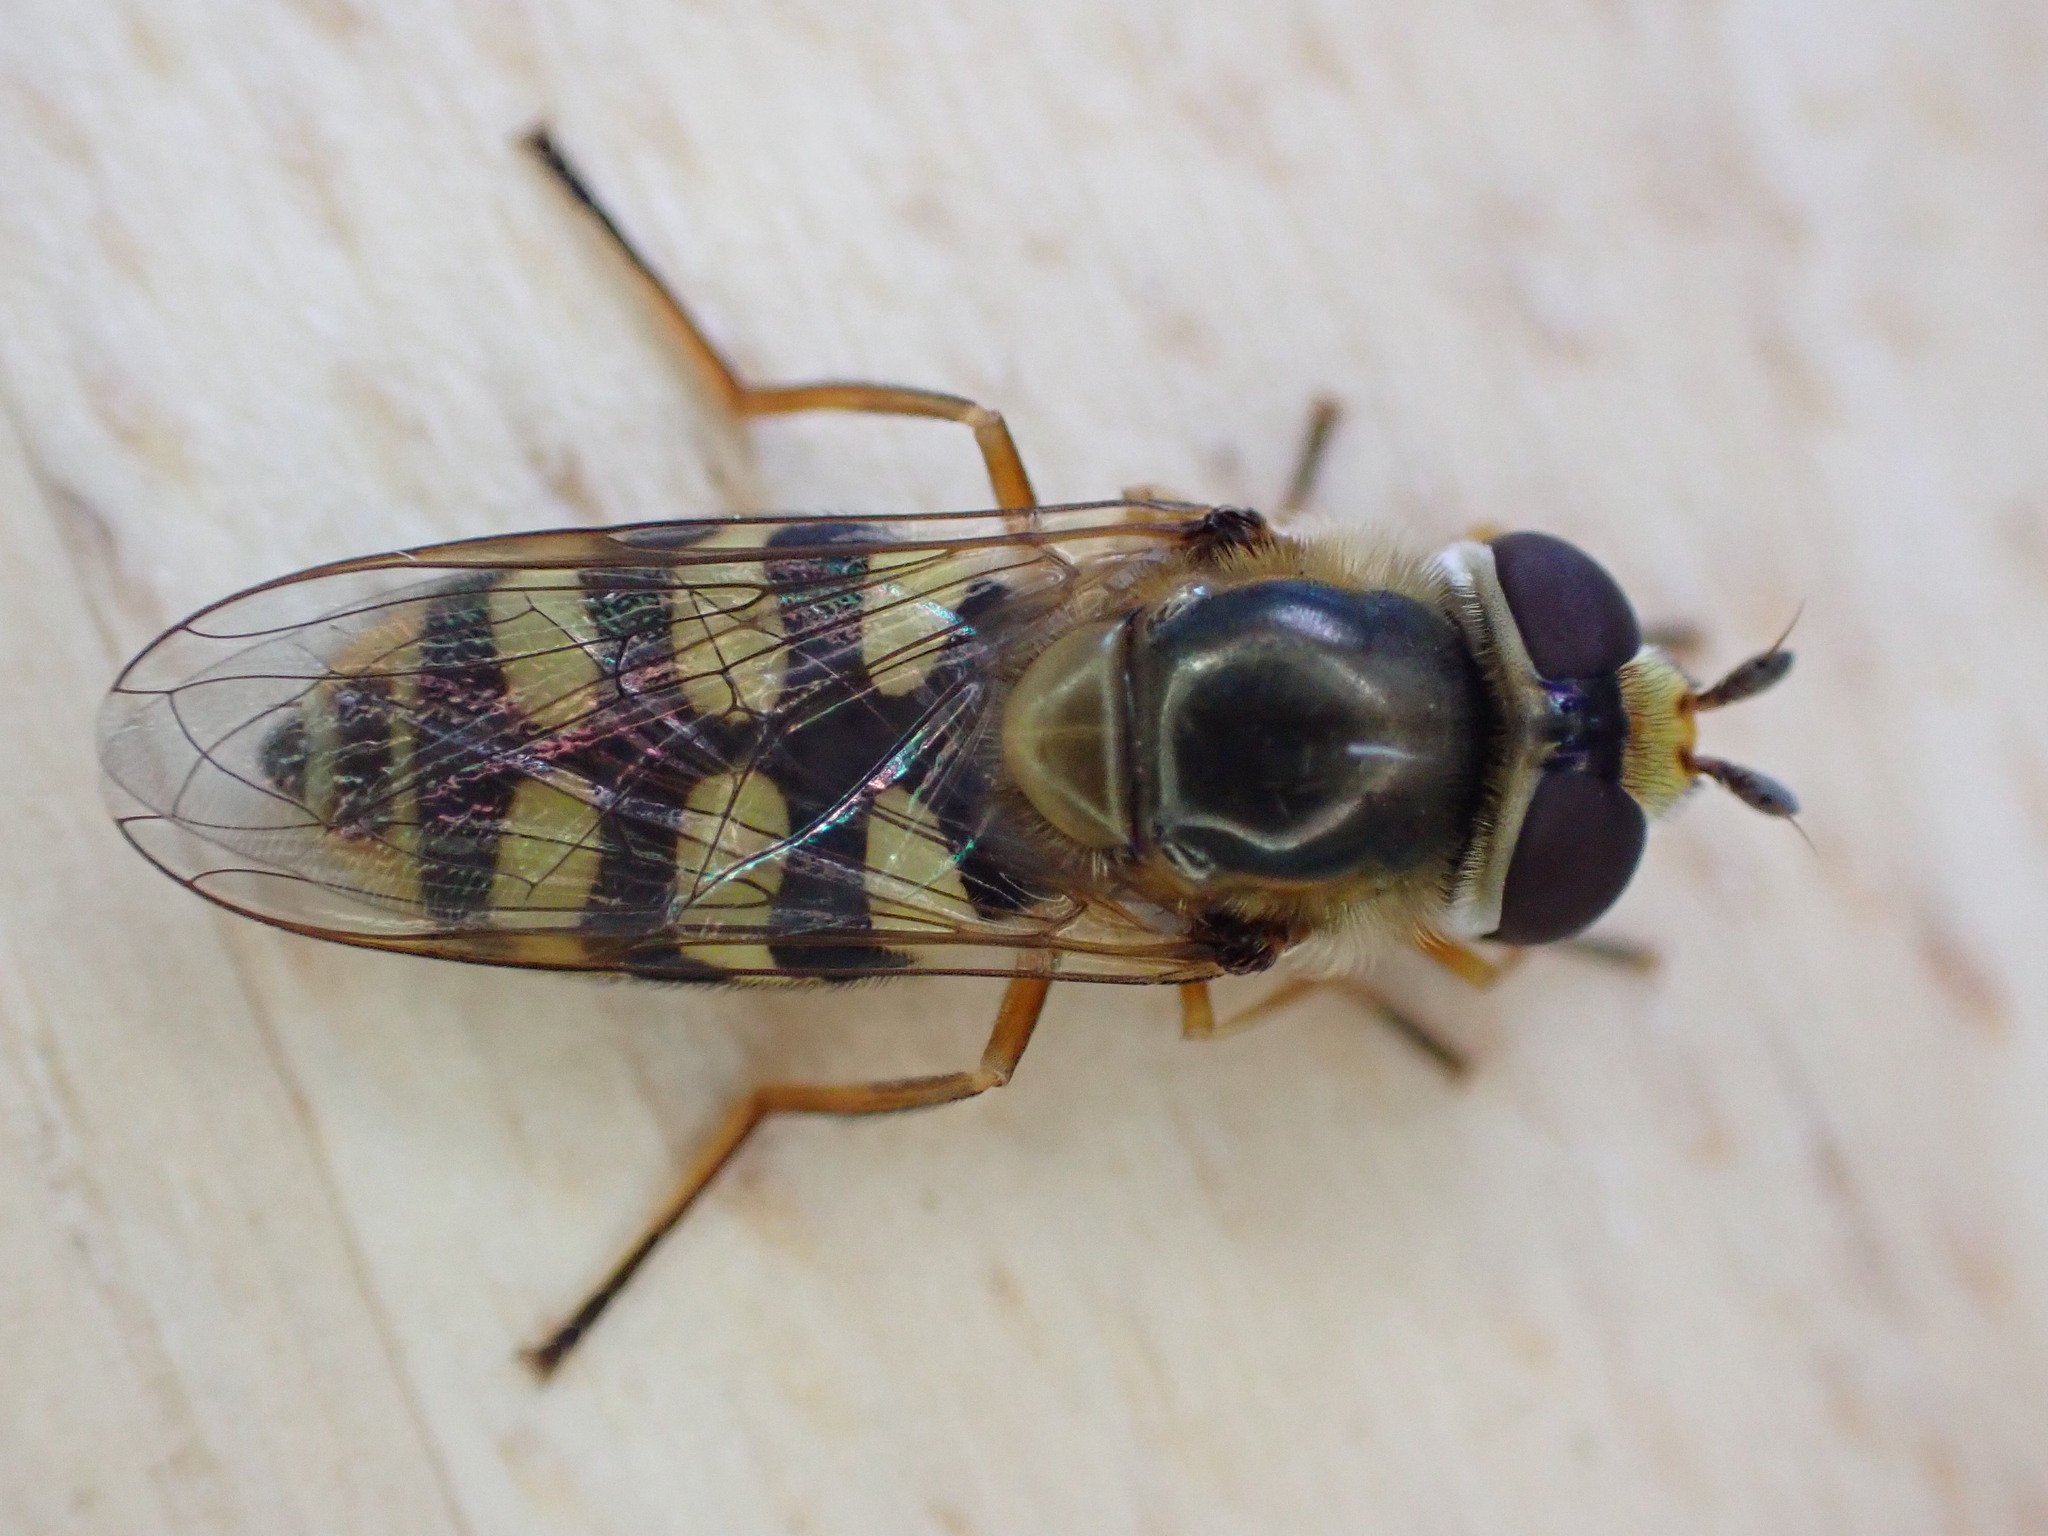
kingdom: Animalia
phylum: Arthropoda
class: Insecta
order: Diptera
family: Syrphidae
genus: Eupeodes
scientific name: Eupeodes corollae
